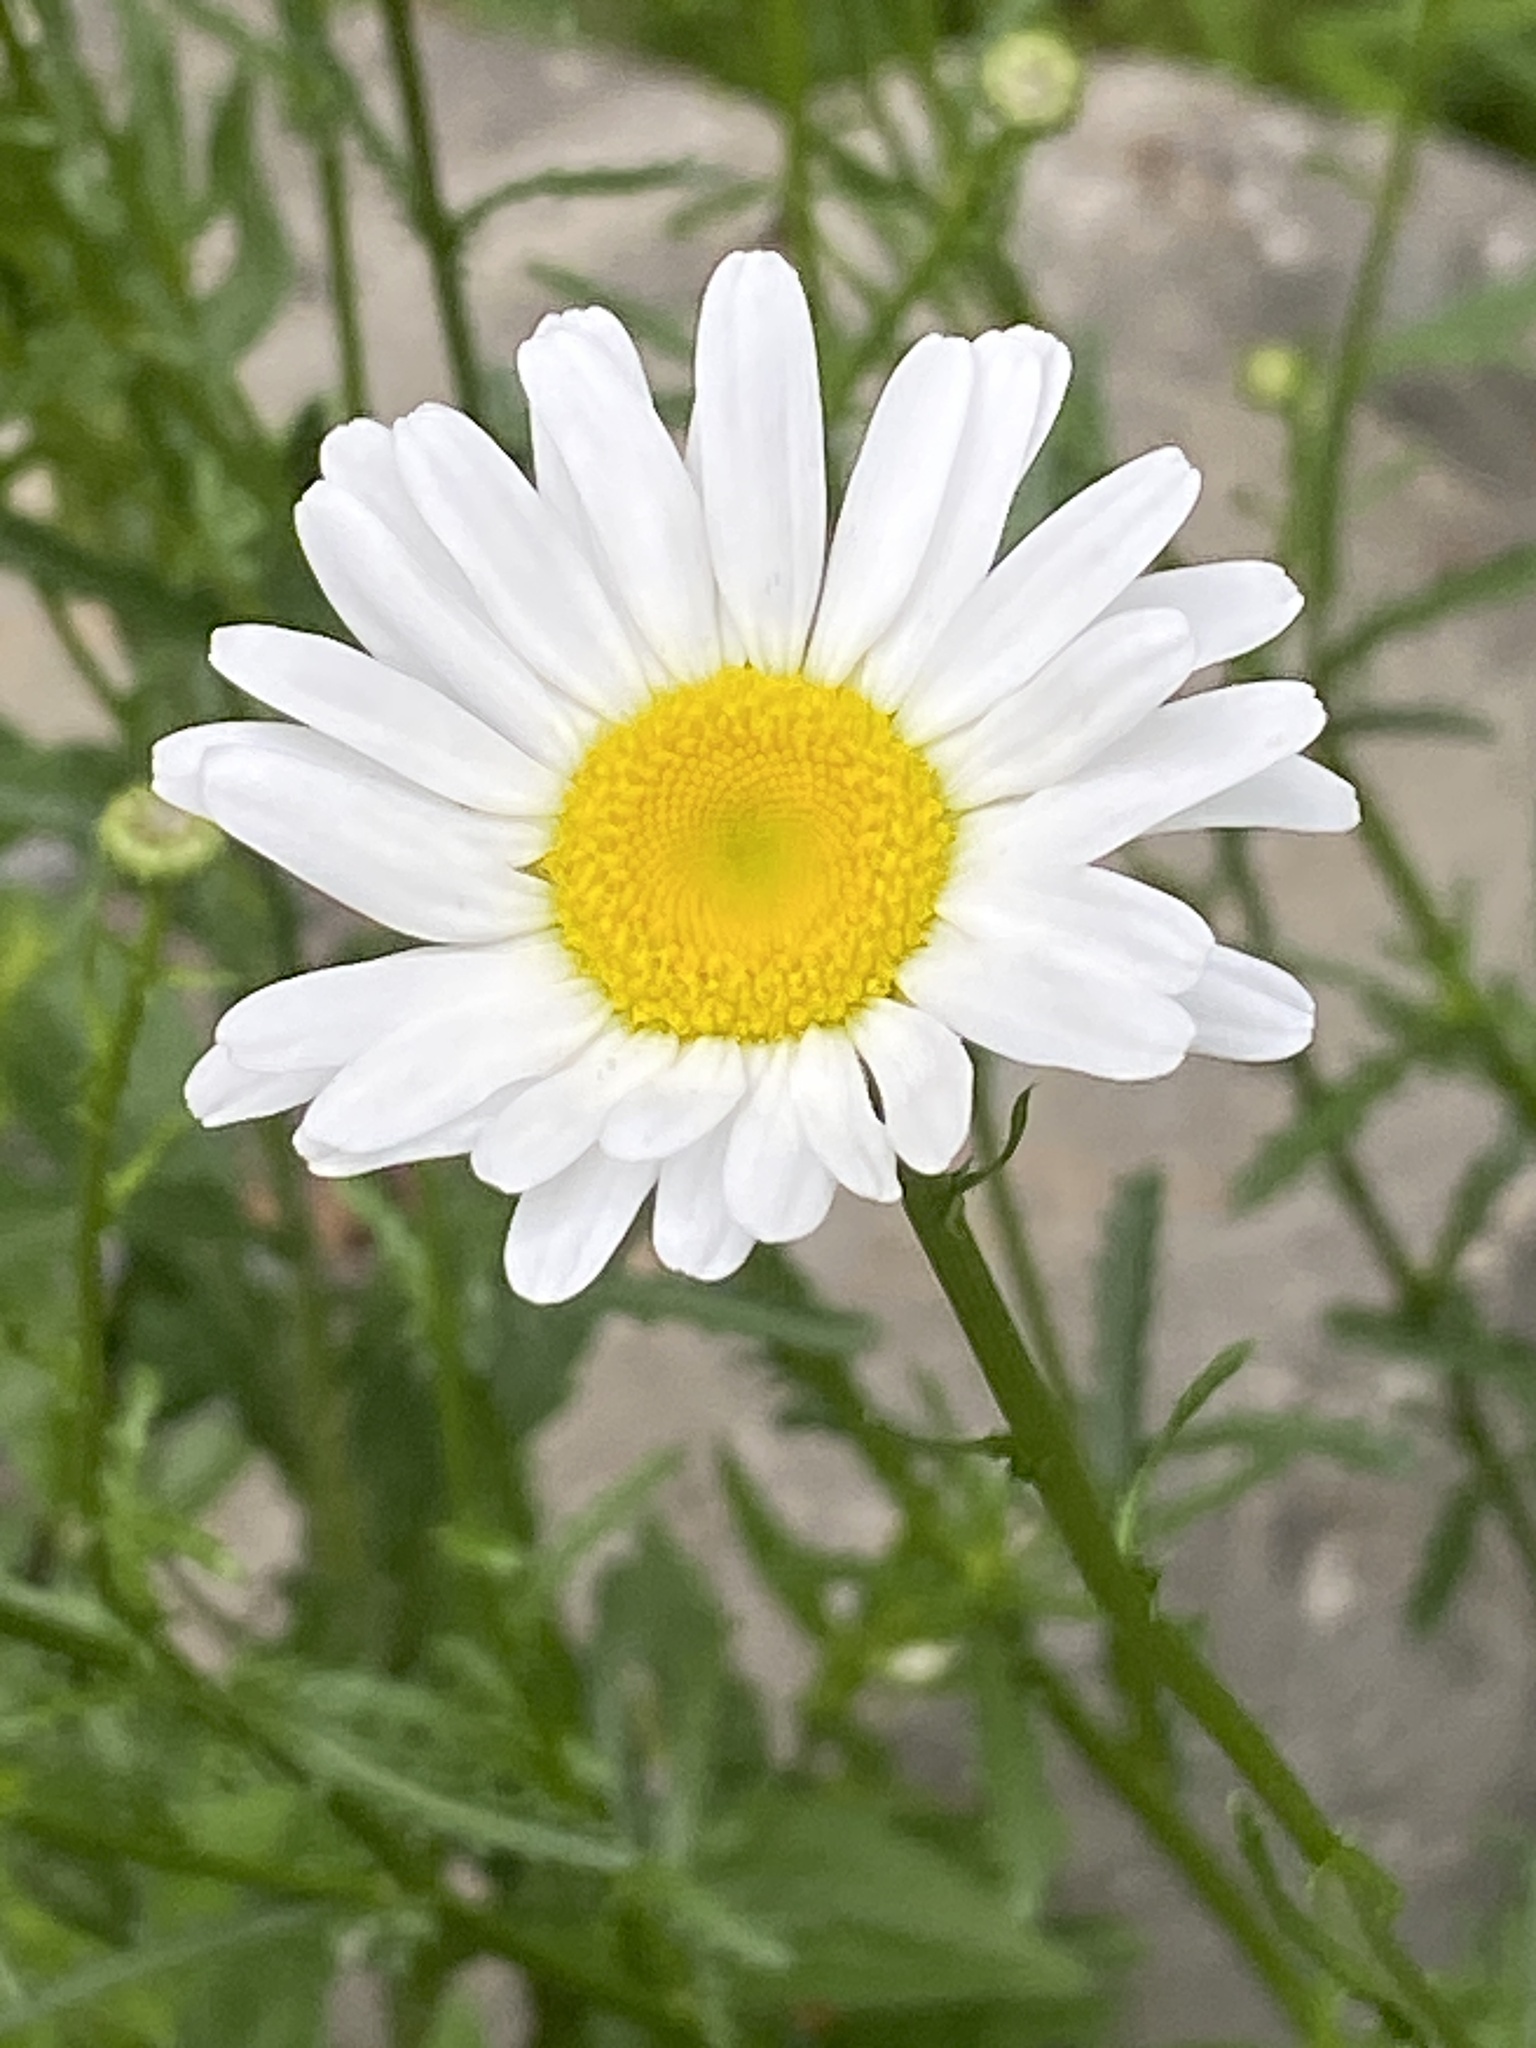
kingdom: Plantae
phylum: Tracheophyta
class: Magnoliopsida
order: Asterales
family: Asteraceae
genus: Leucanthemum
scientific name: Leucanthemum vulgare
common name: Oxeye daisy
